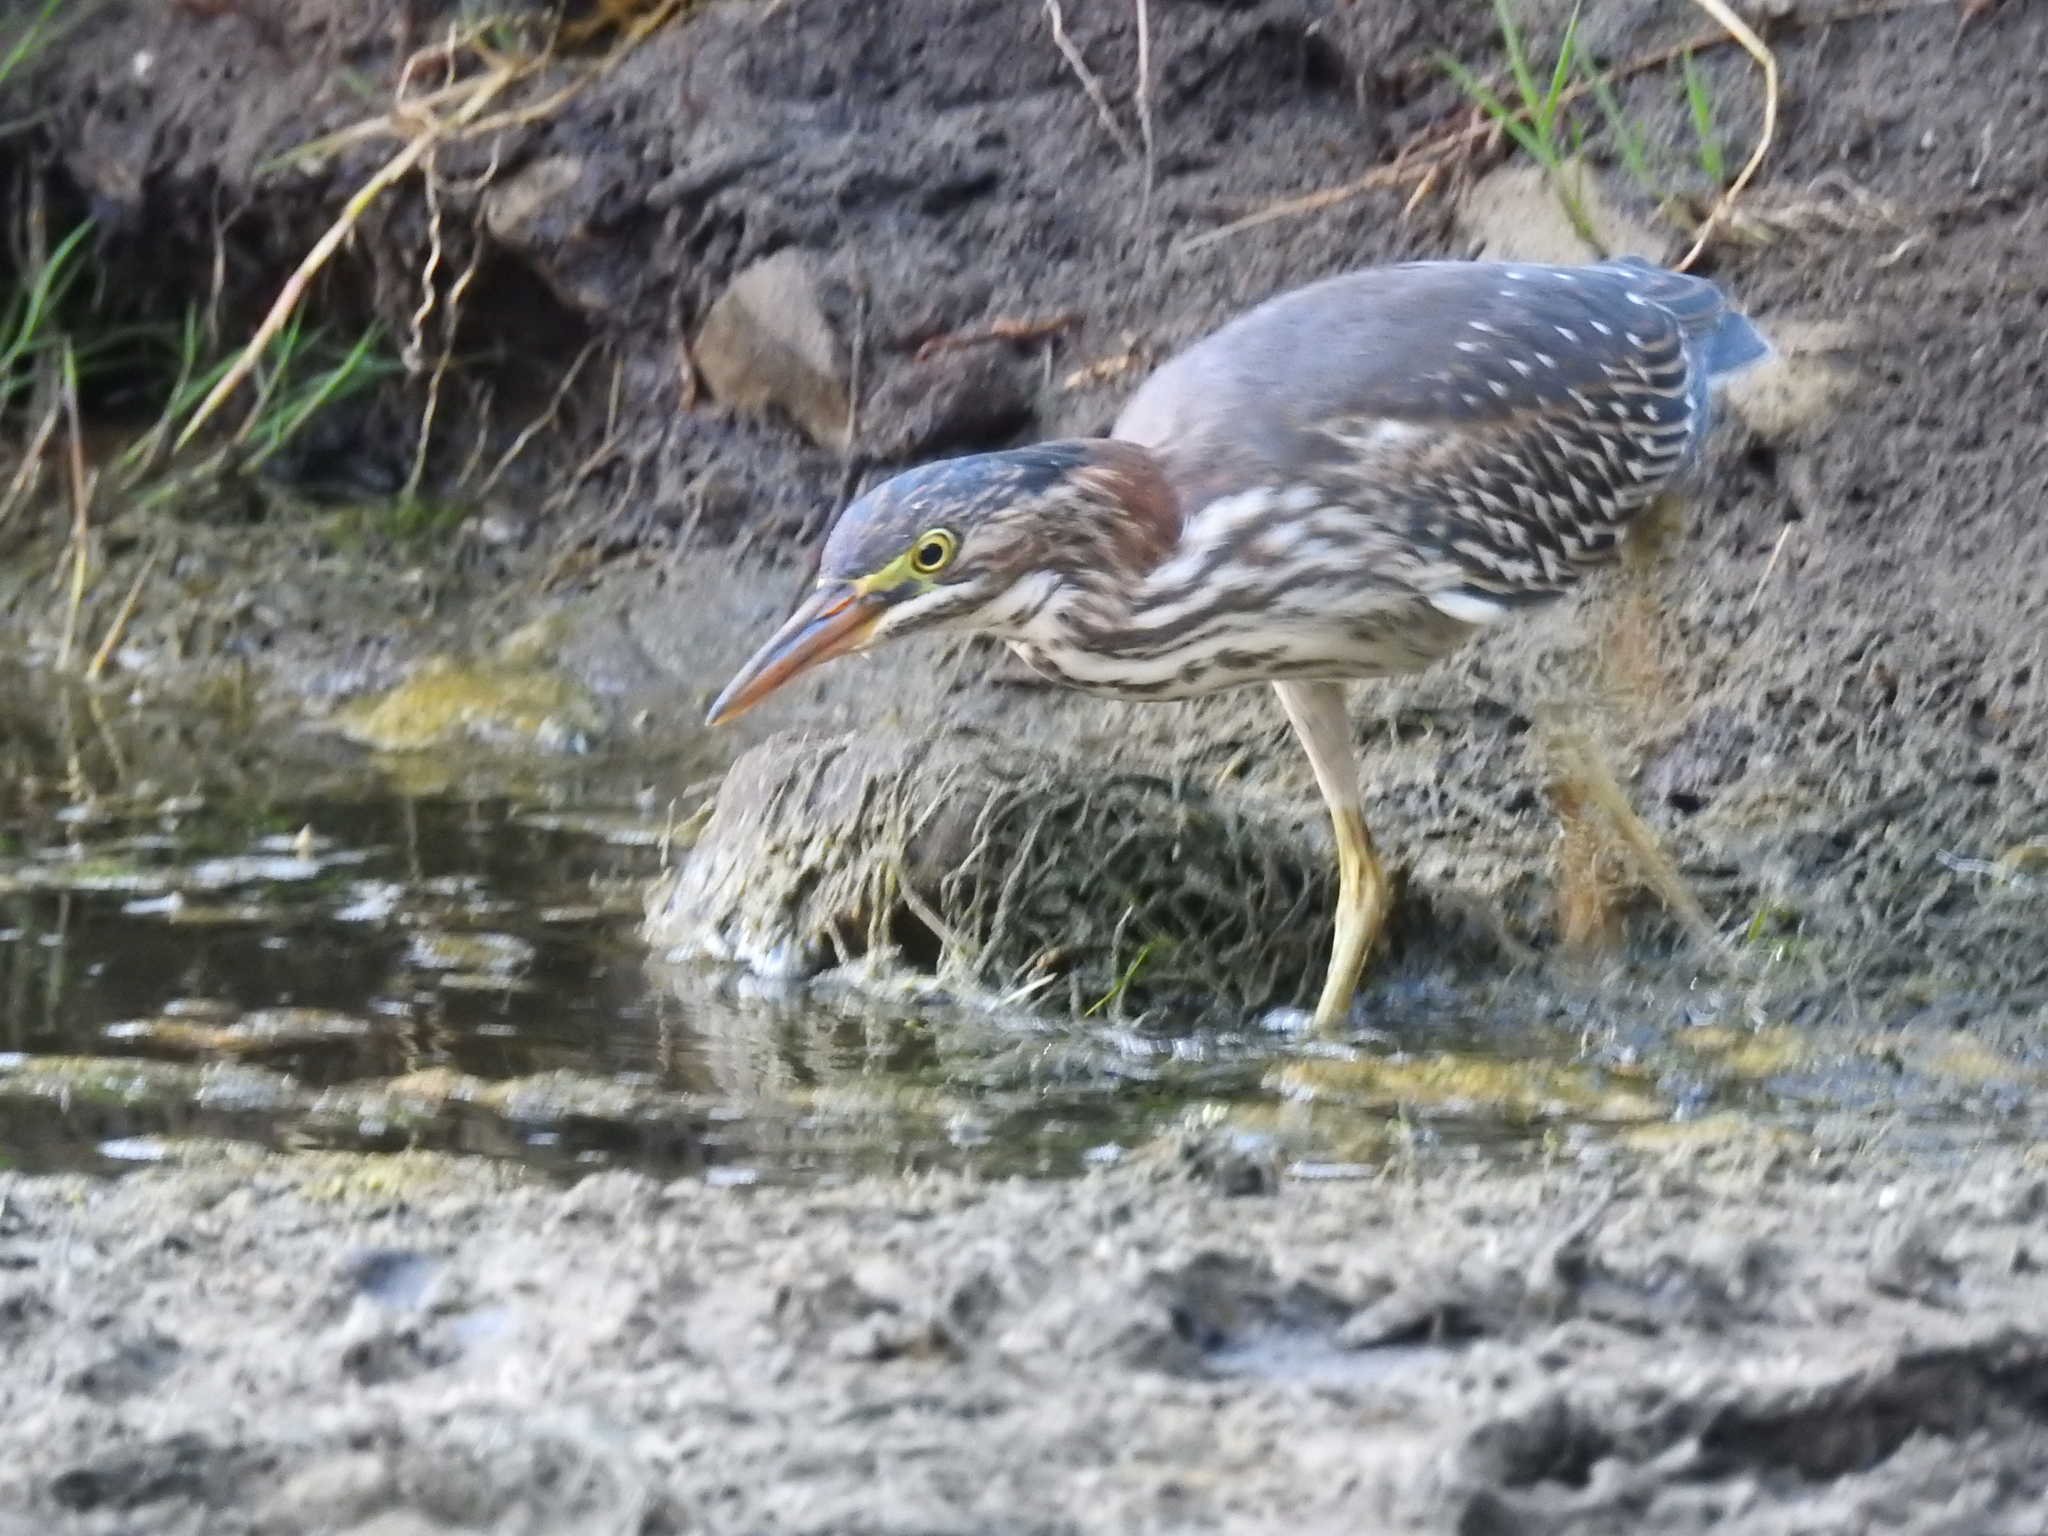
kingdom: Animalia
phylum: Chordata
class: Aves
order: Pelecaniformes
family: Ardeidae
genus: Butorides
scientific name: Butorides virescens
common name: Green heron
